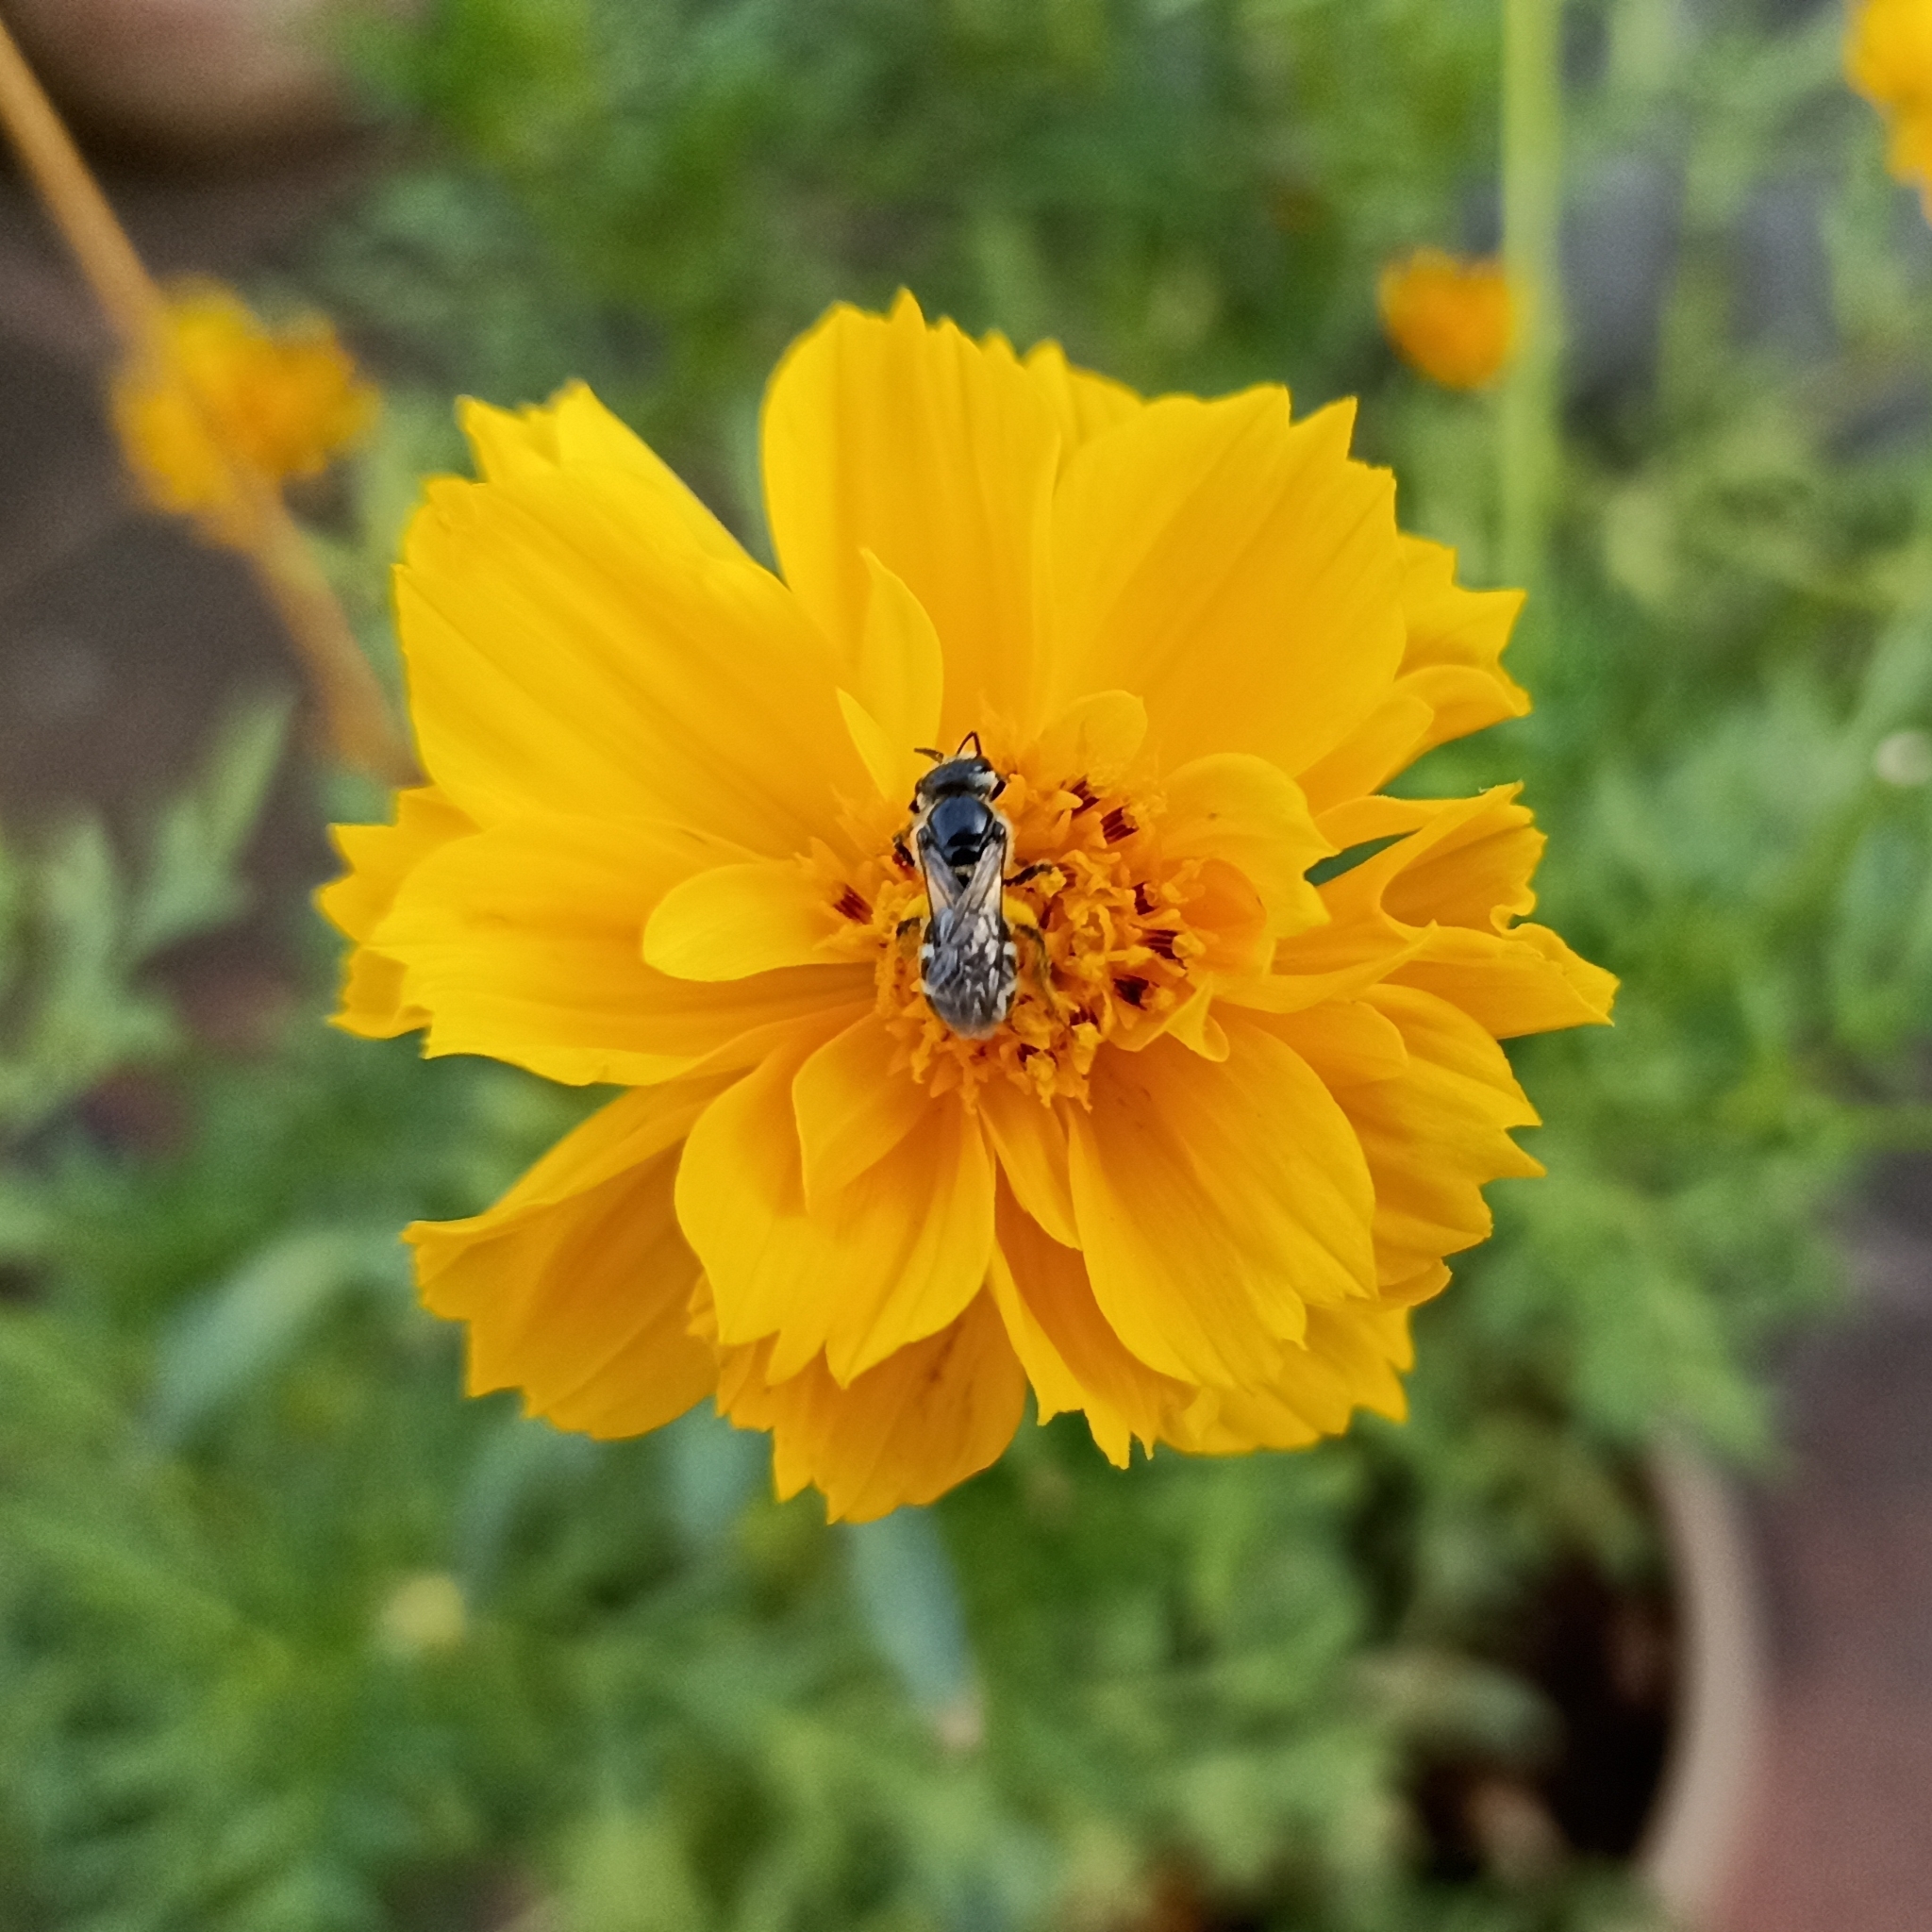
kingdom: Animalia
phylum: Arthropoda
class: Insecta
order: Hymenoptera
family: Halictidae
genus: Lasioglossum
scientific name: Lasioglossum albescens
